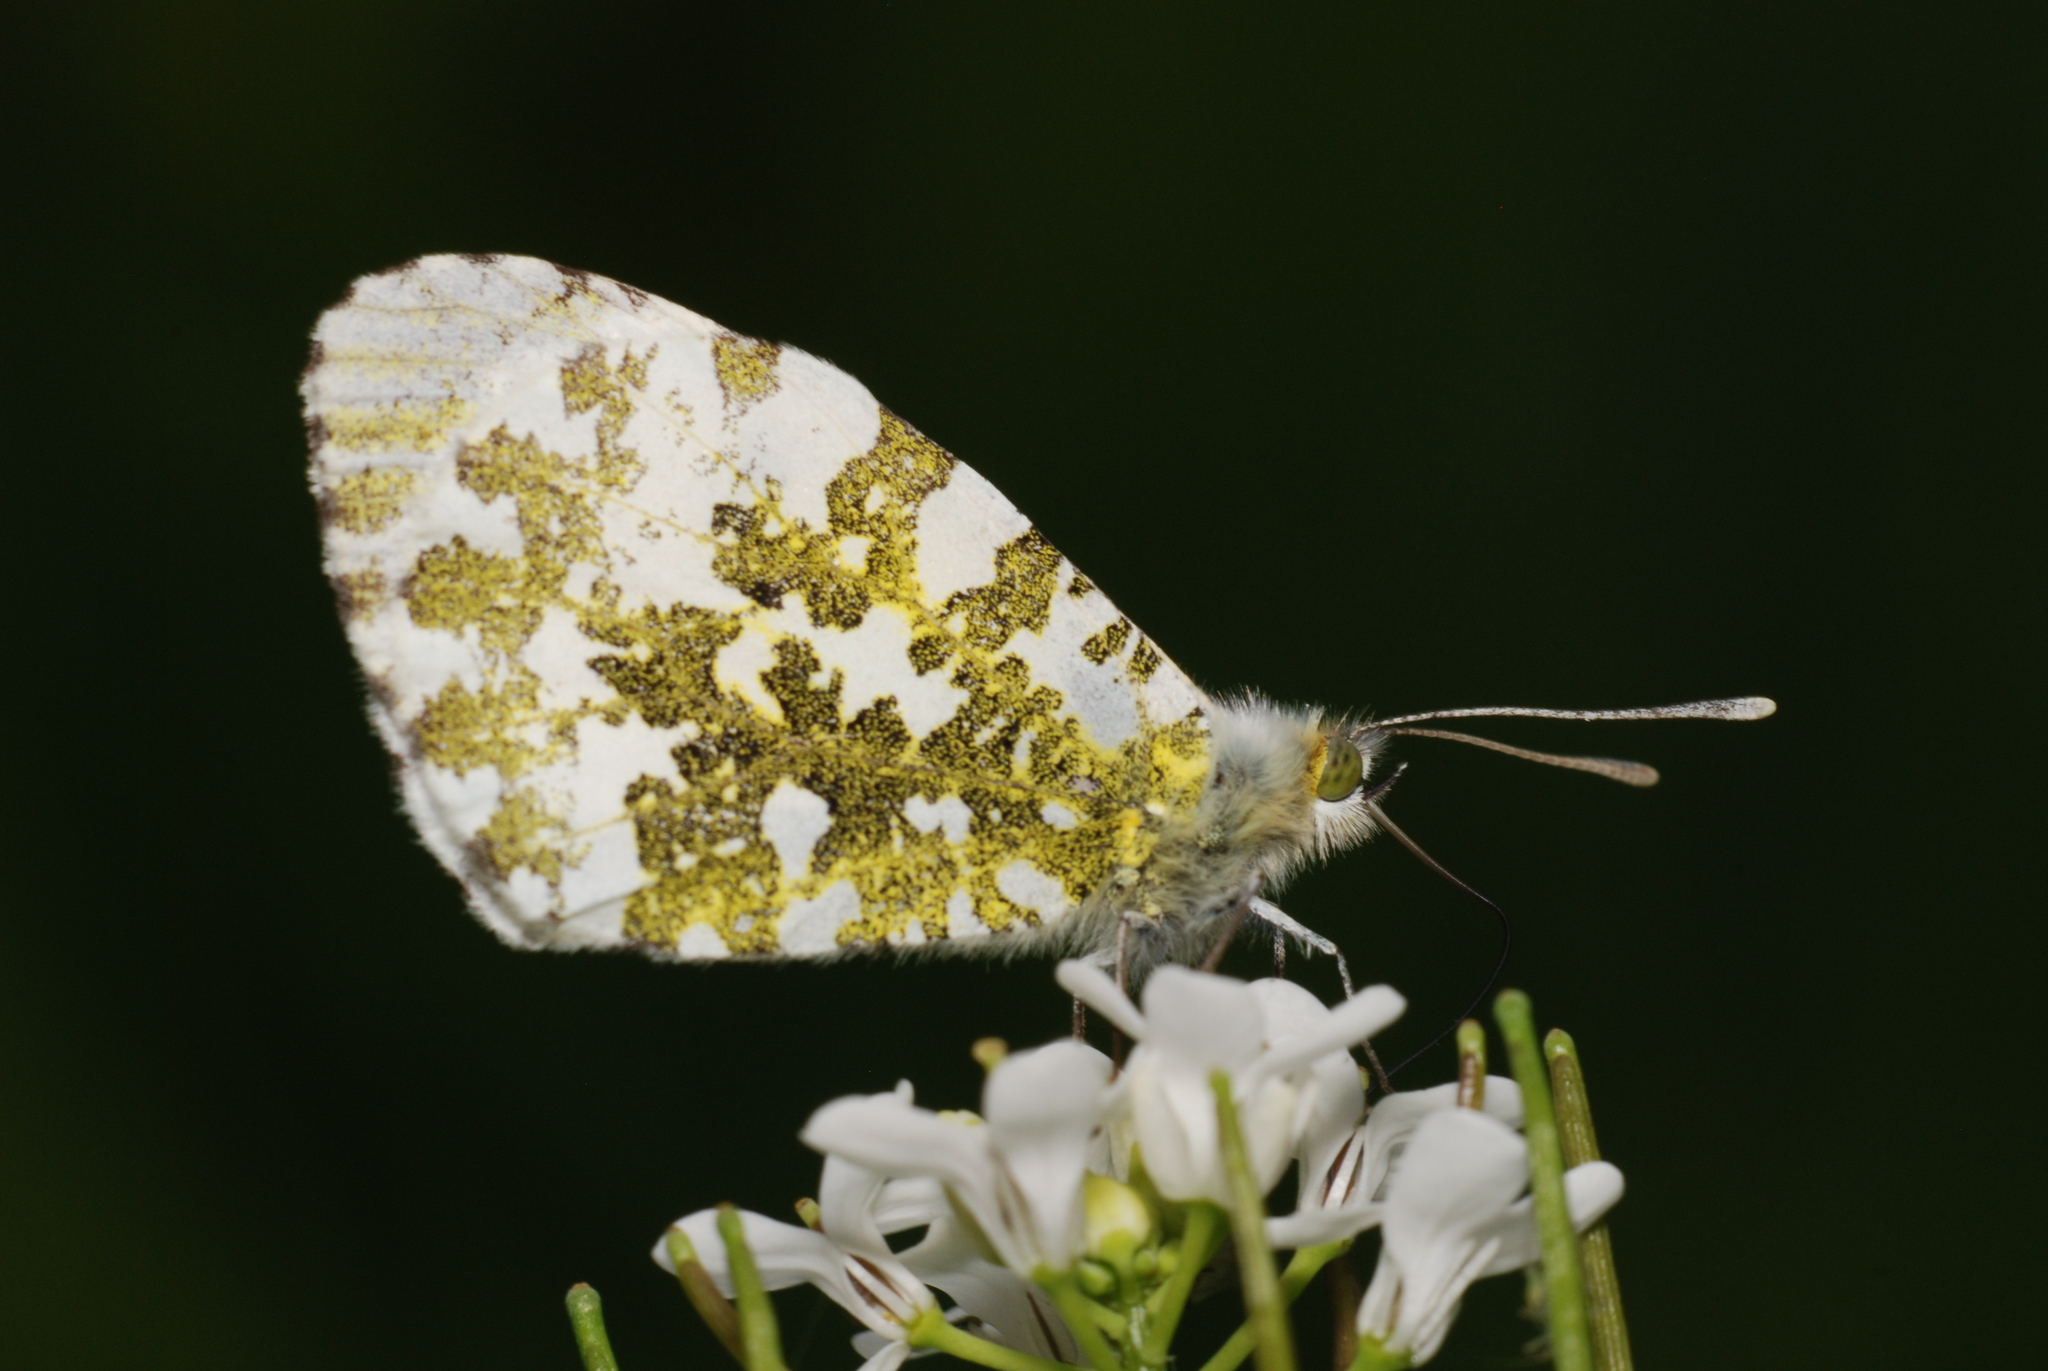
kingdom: Animalia
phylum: Arthropoda
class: Insecta
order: Lepidoptera
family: Pieridae
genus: Anthocharis
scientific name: Anthocharis cardamines
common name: Orange-tip
